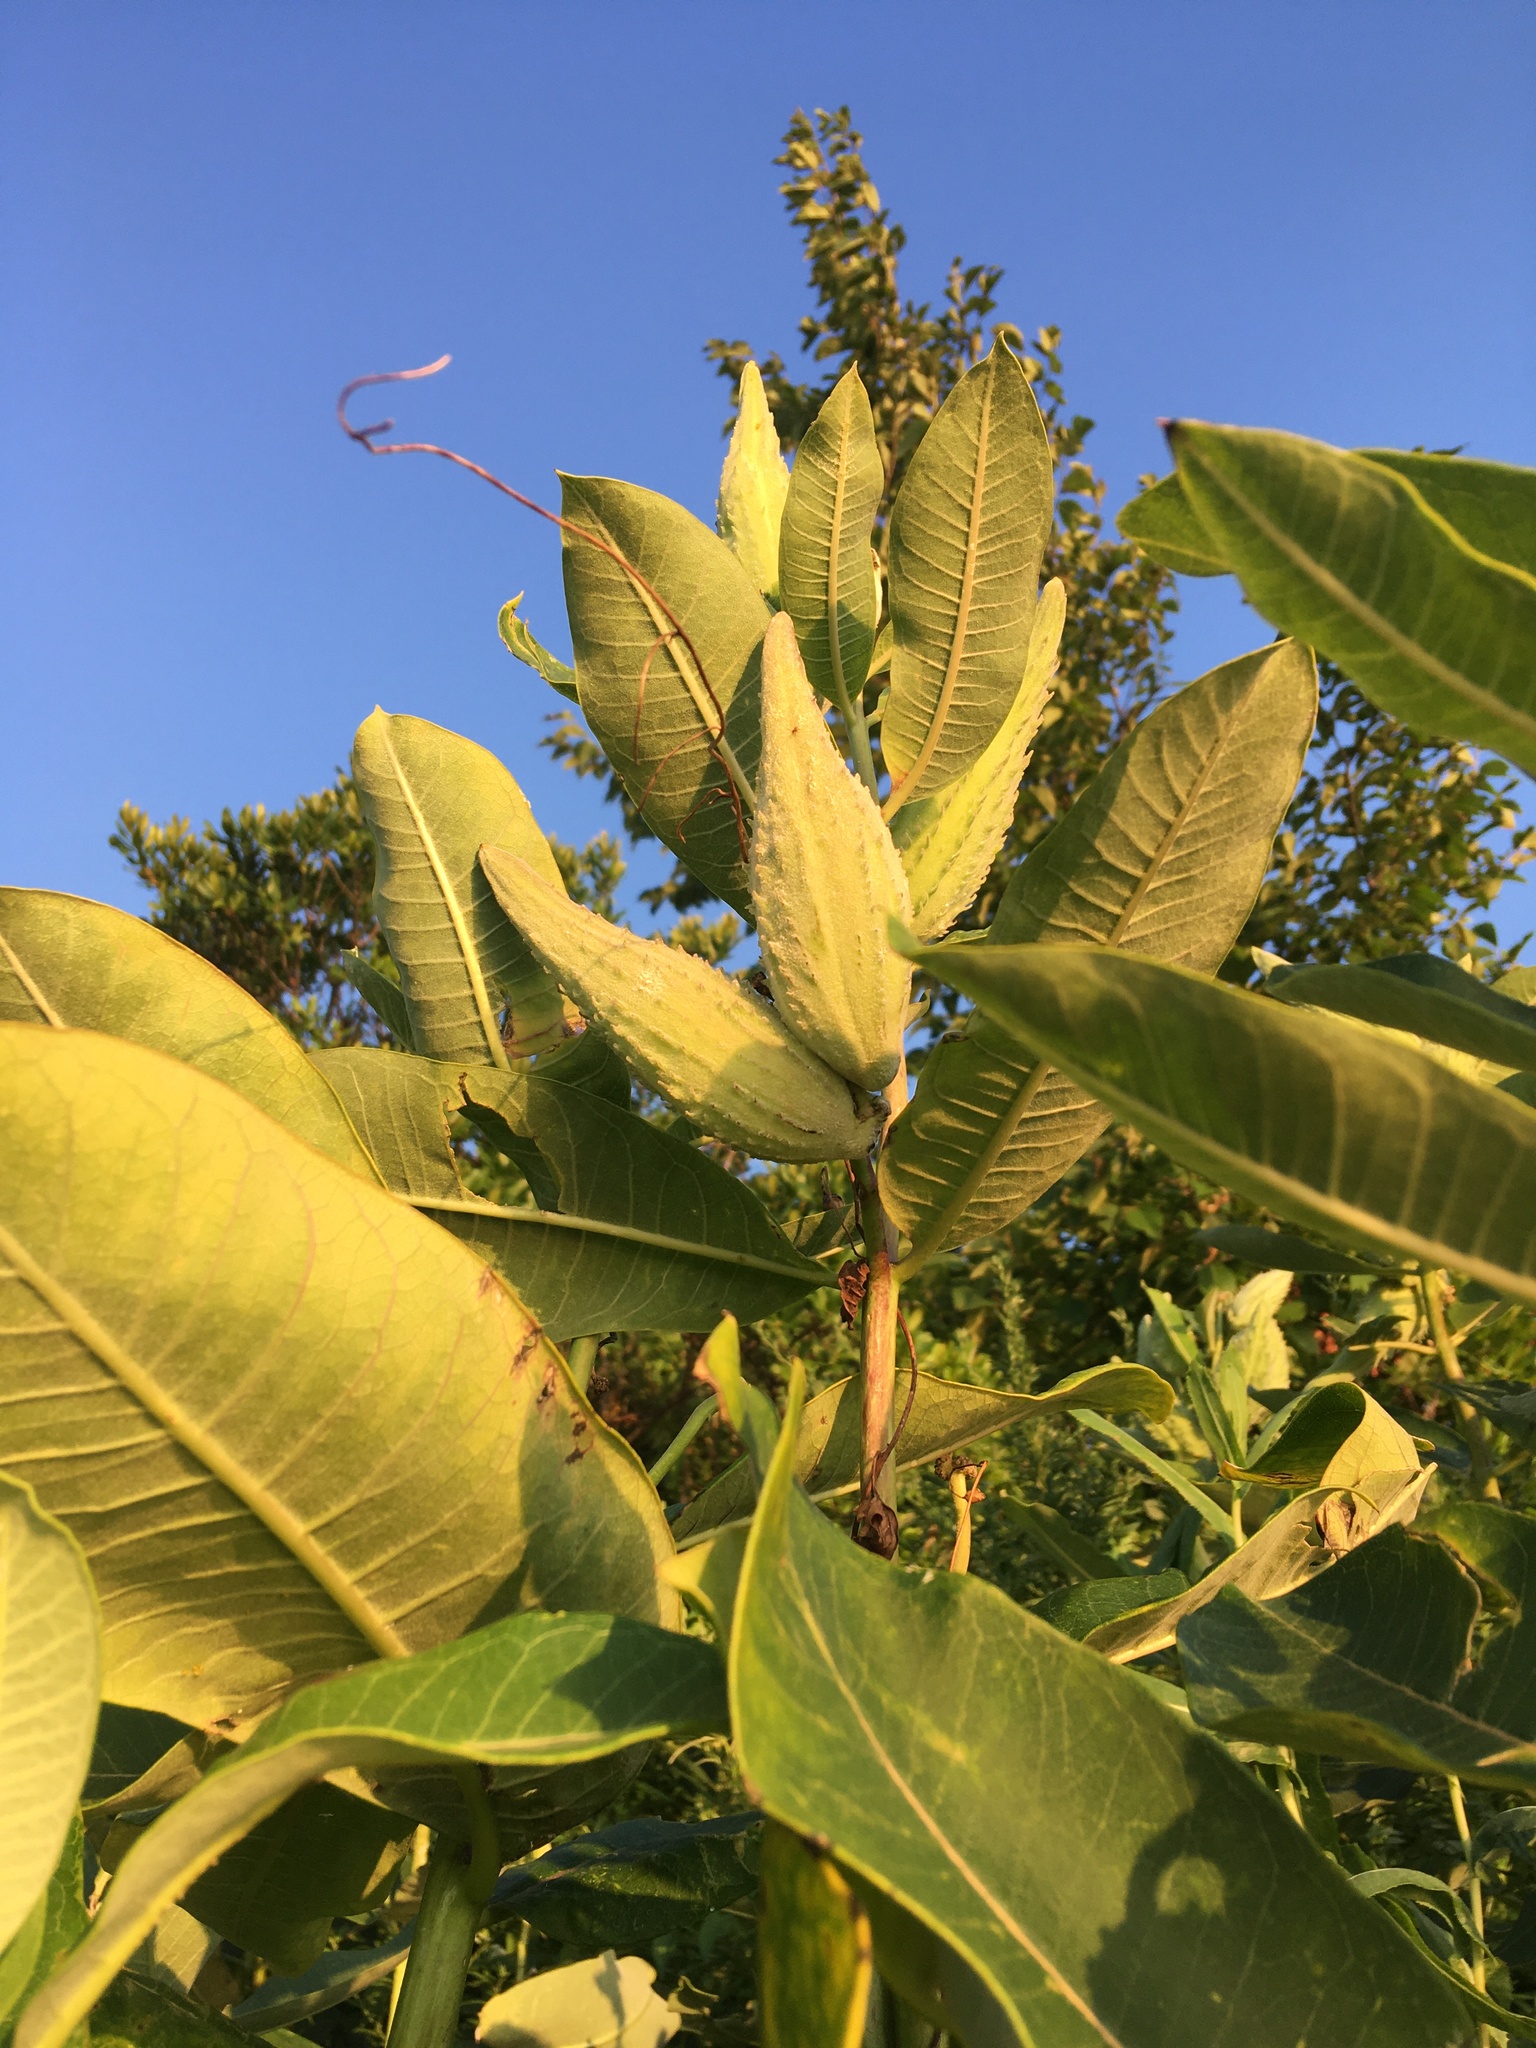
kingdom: Plantae
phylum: Tracheophyta
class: Magnoliopsida
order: Gentianales
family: Apocynaceae
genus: Asclepias
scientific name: Asclepias syriaca
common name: Common milkweed
